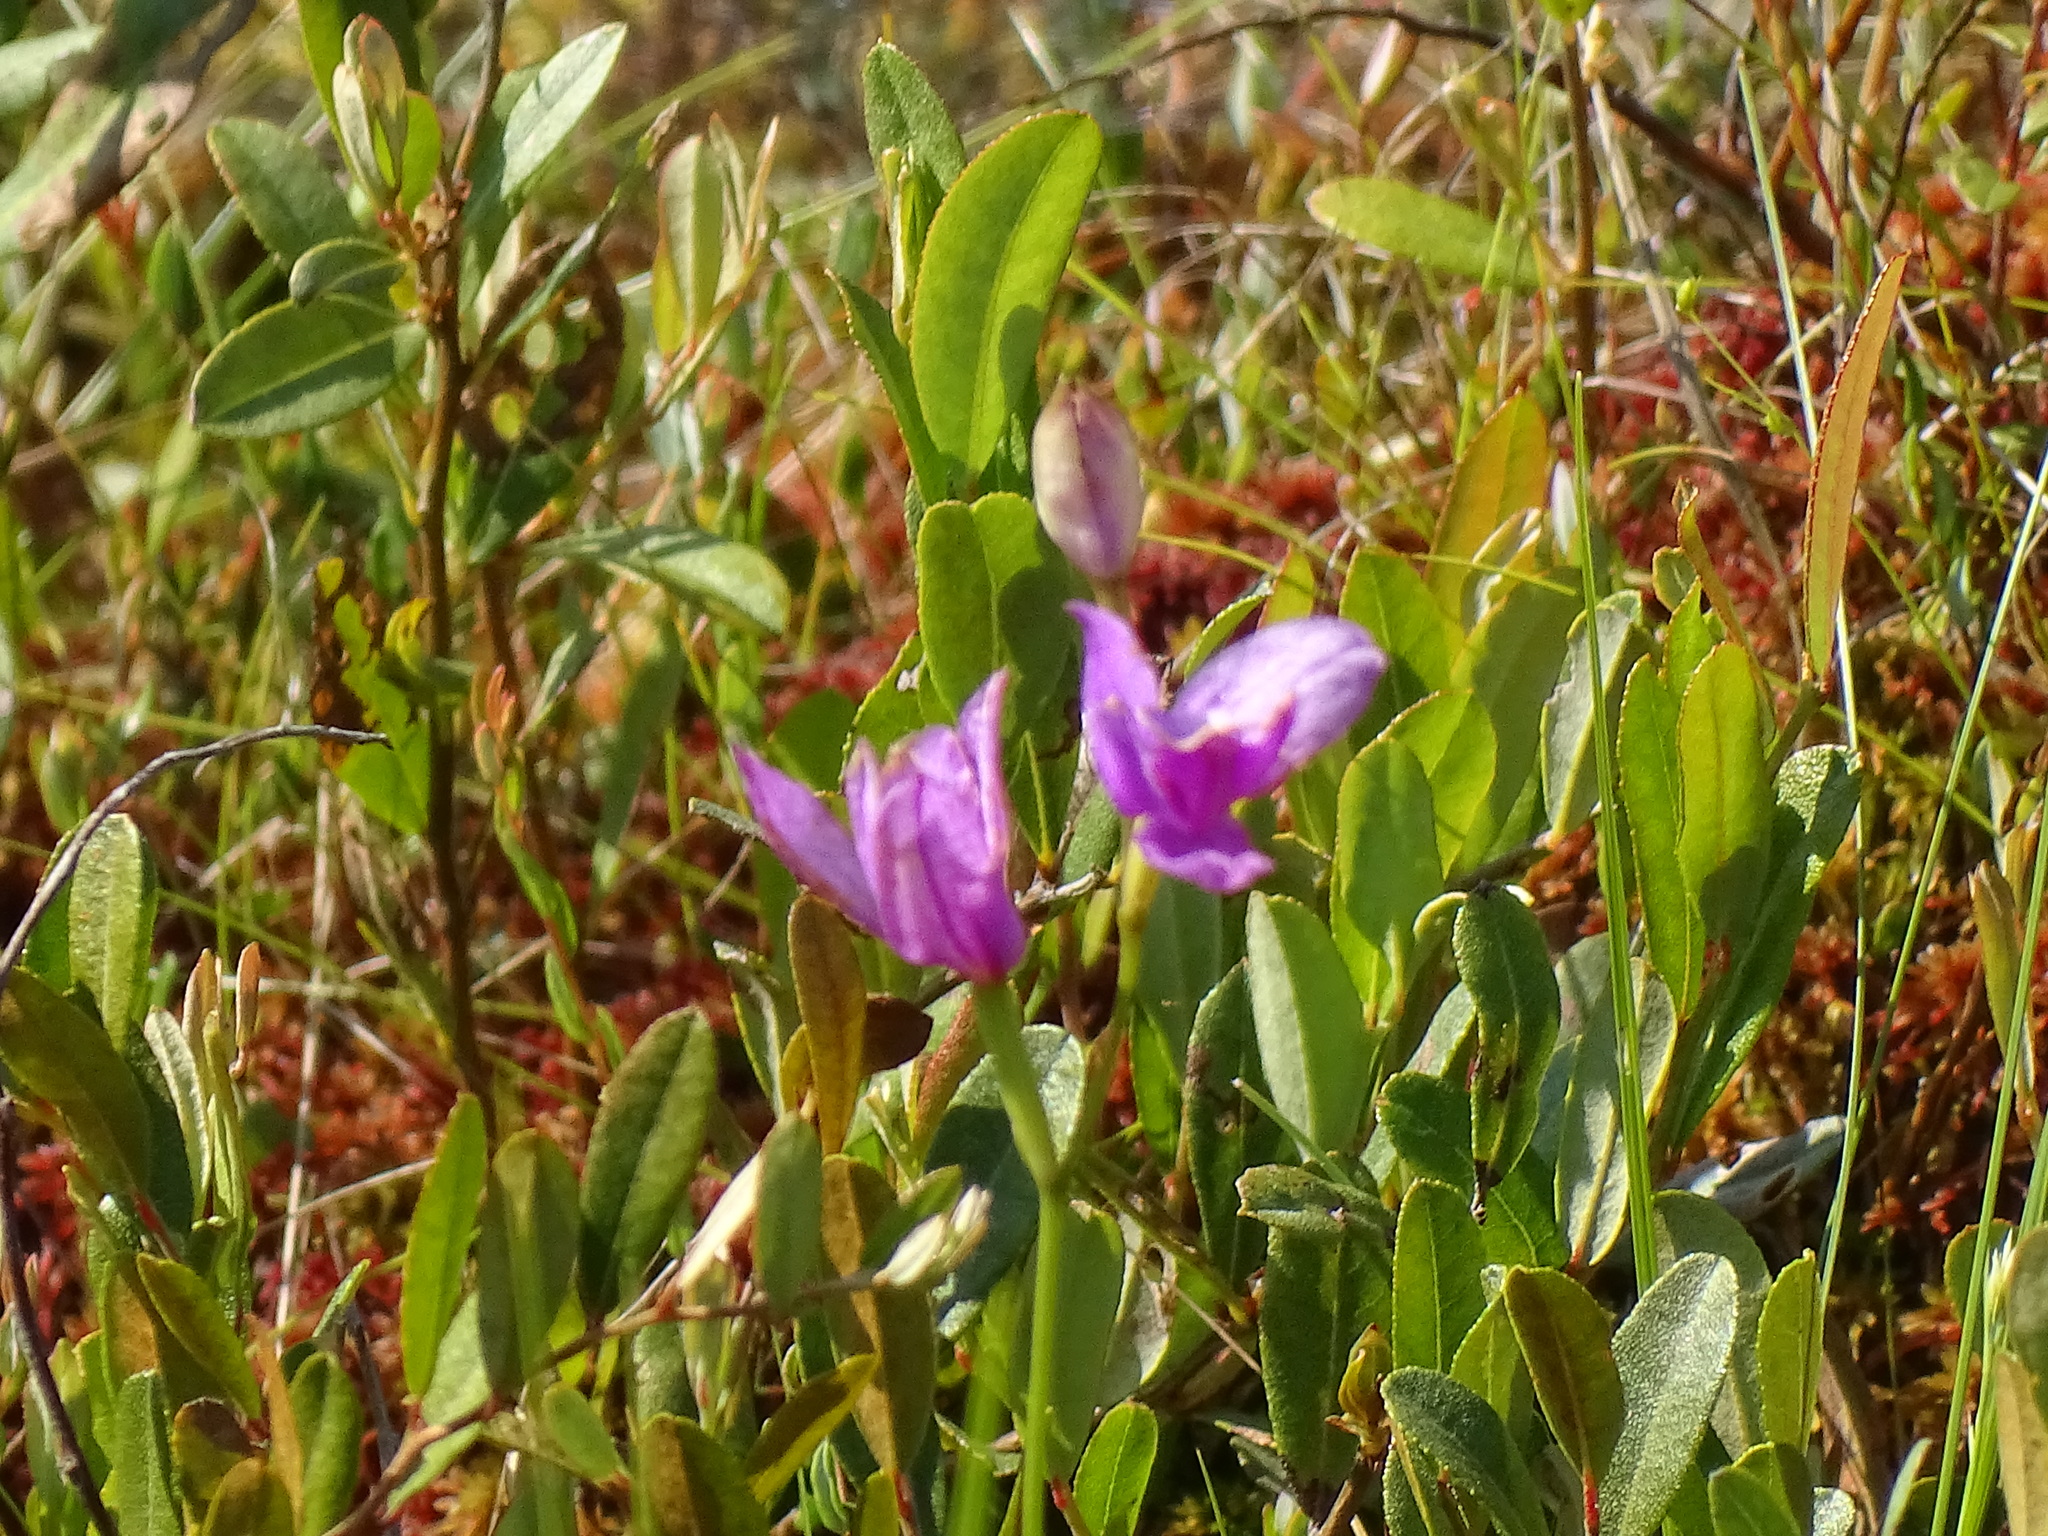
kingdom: Plantae
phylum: Tracheophyta
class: Liliopsida
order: Asparagales
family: Orchidaceae
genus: Calopogon
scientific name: Calopogon tuberosus
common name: Grass-pink
